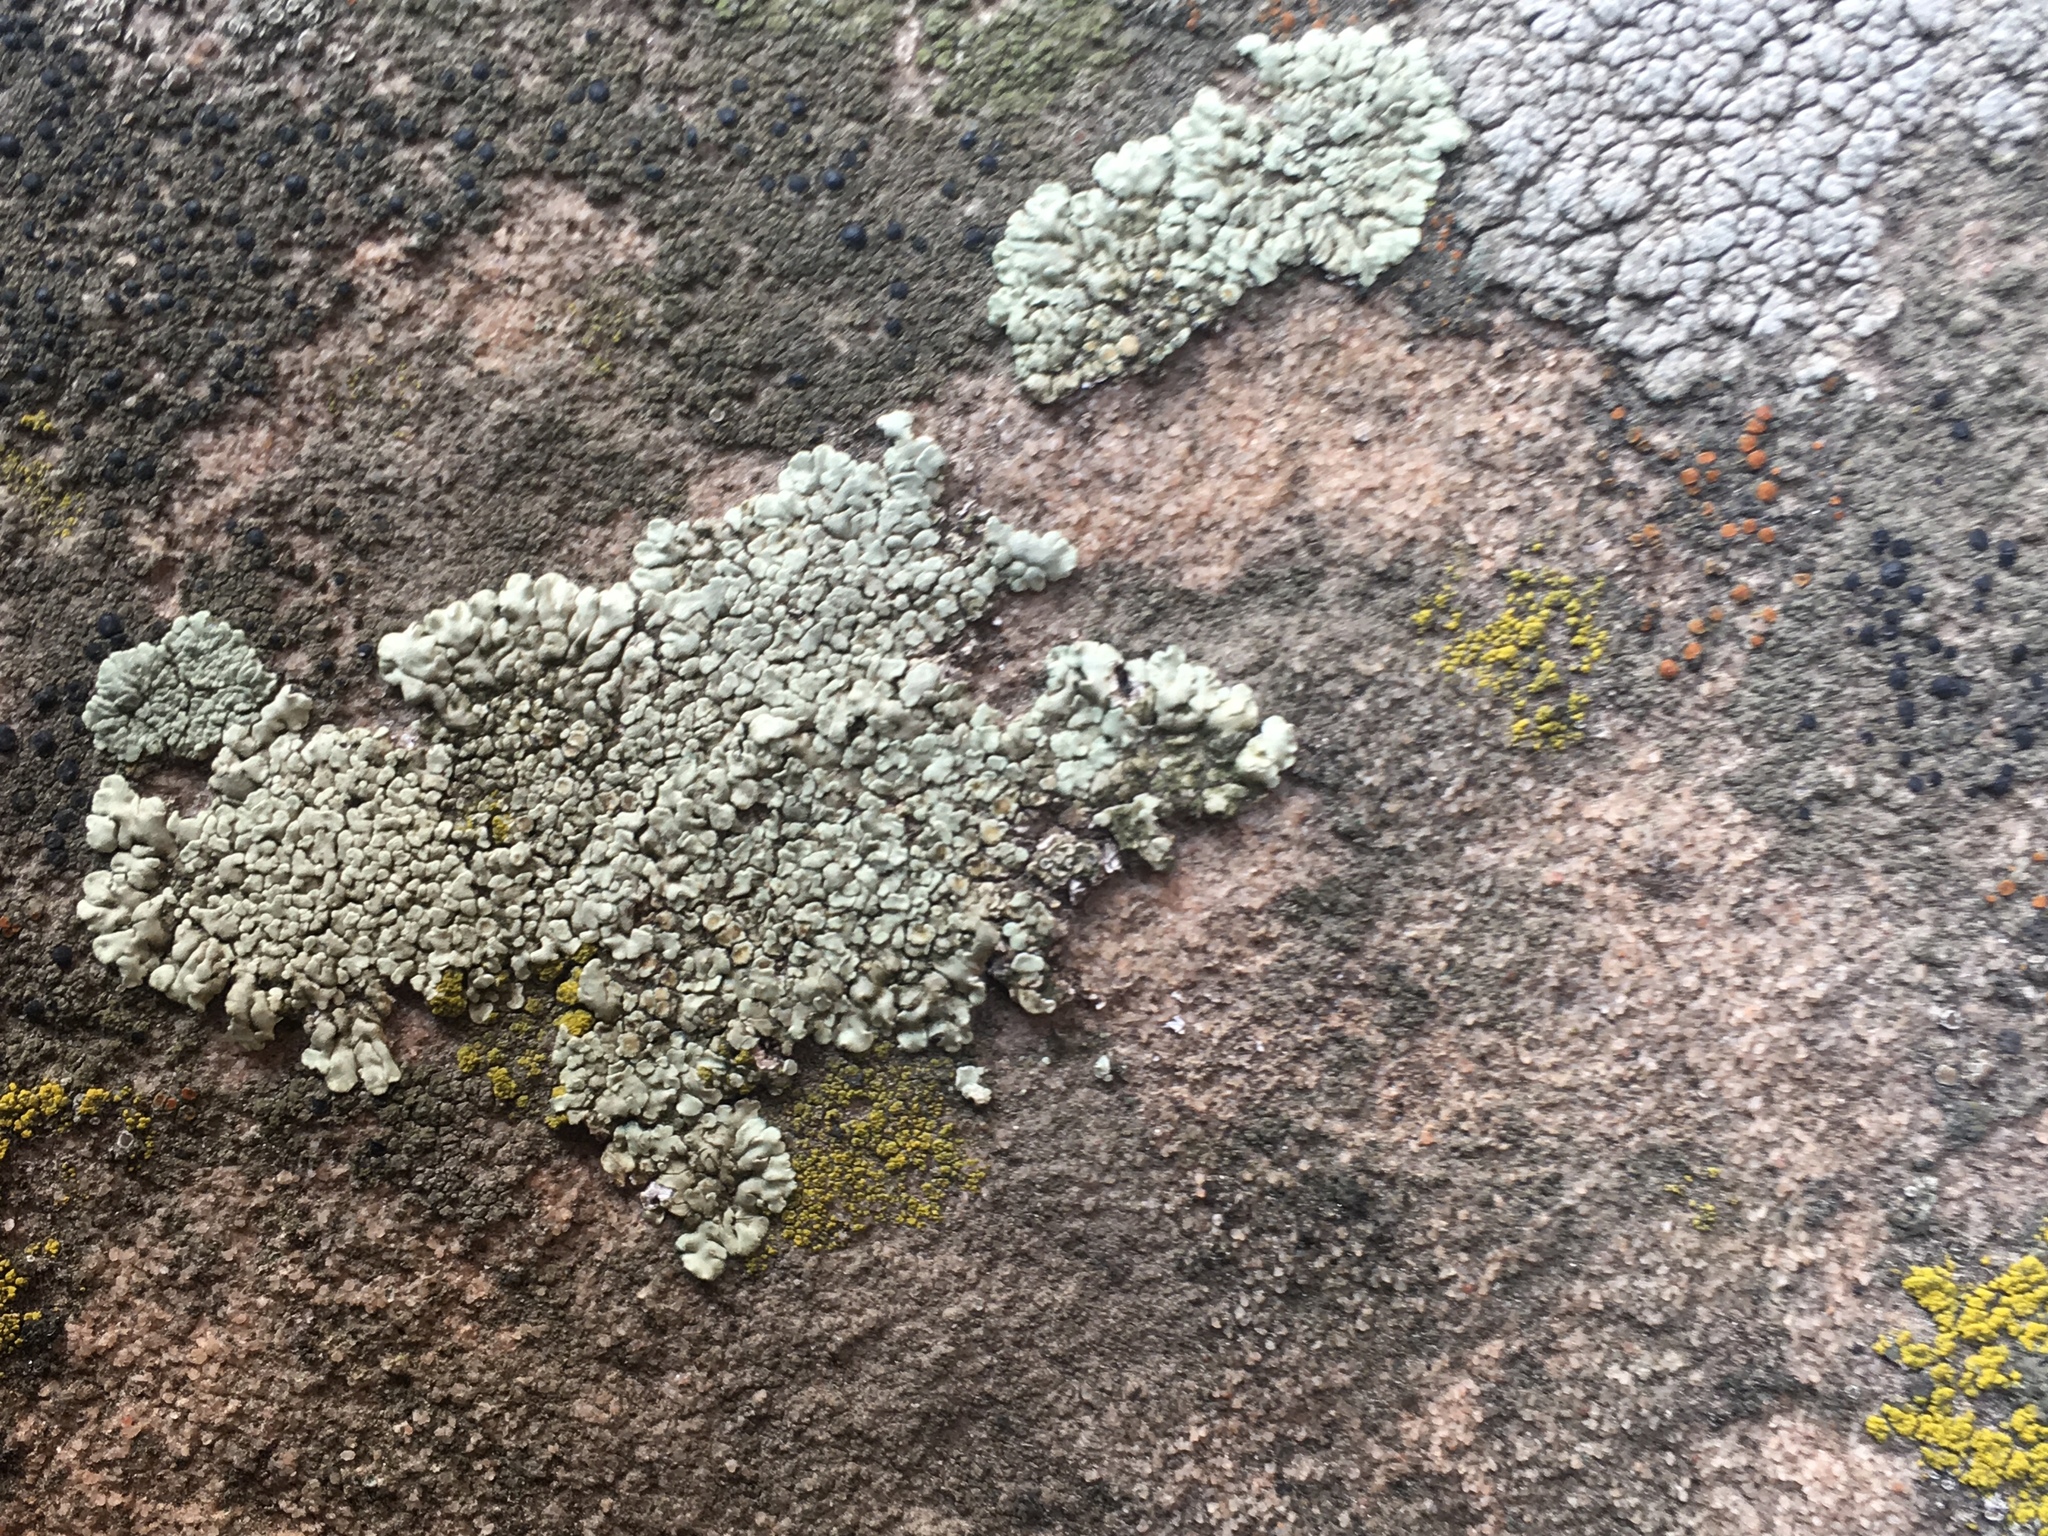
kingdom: Fungi
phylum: Ascomycota
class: Lecanoromycetes
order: Lecanorales
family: Lecanoraceae
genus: Protoparmeliopsis
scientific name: Protoparmeliopsis muralis
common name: Stonewall rim lichen
